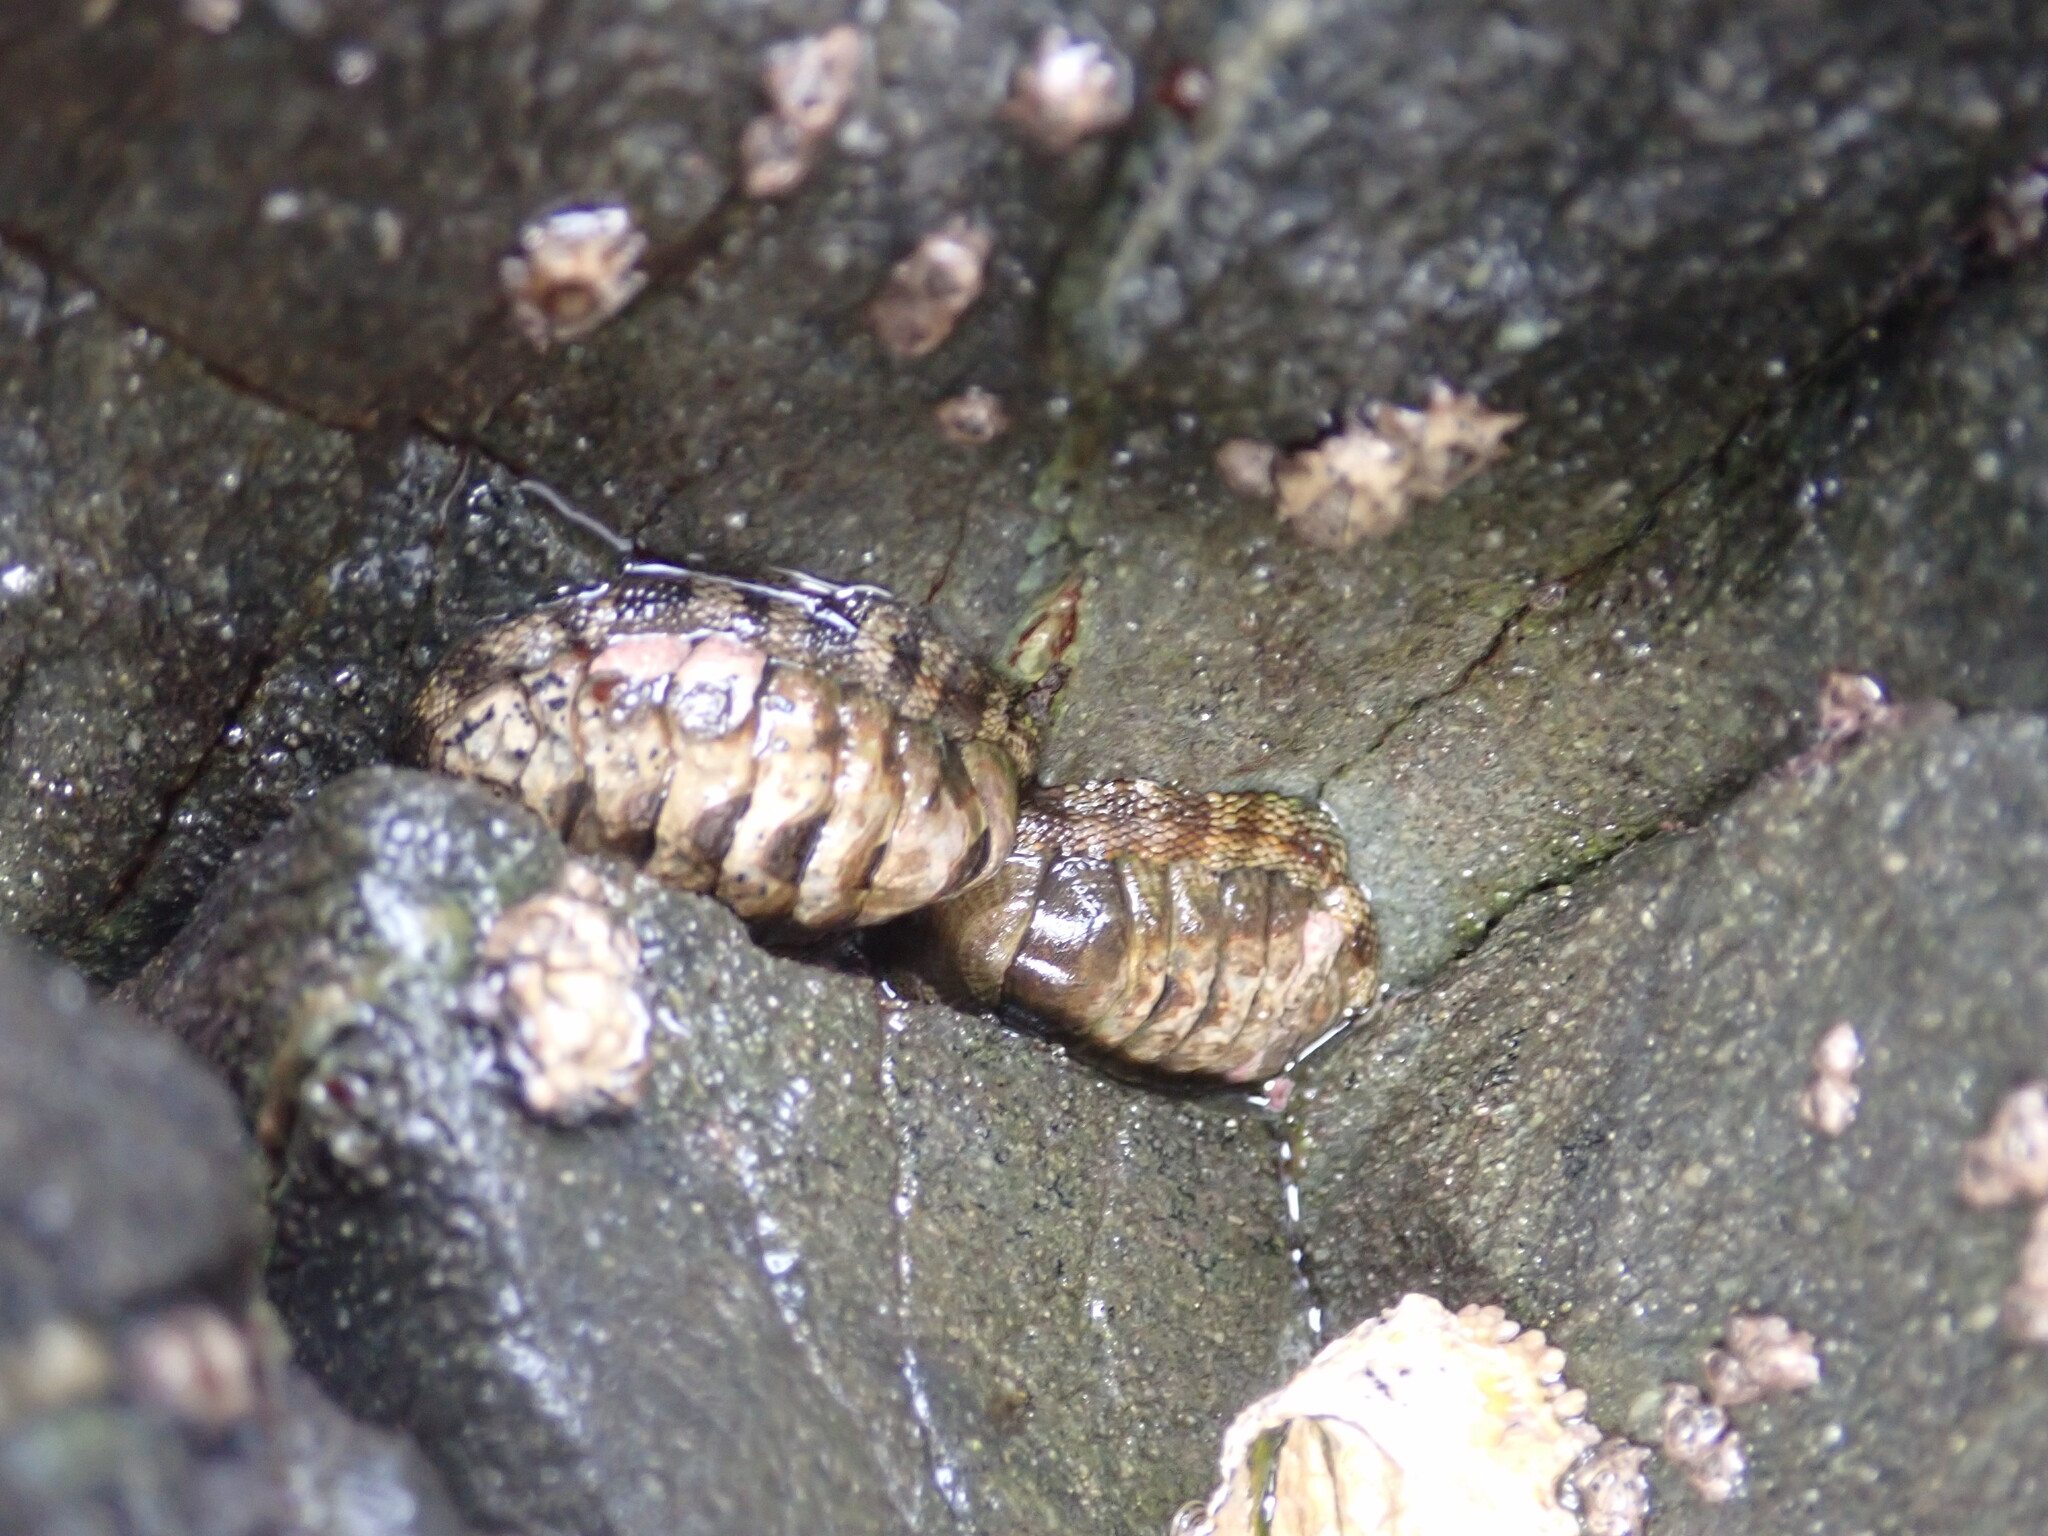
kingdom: Animalia
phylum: Mollusca
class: Polyplacophora
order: Chitonida
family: Chitonidae
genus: Sypharochiton
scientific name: Sypharochiton pelliserpentis
